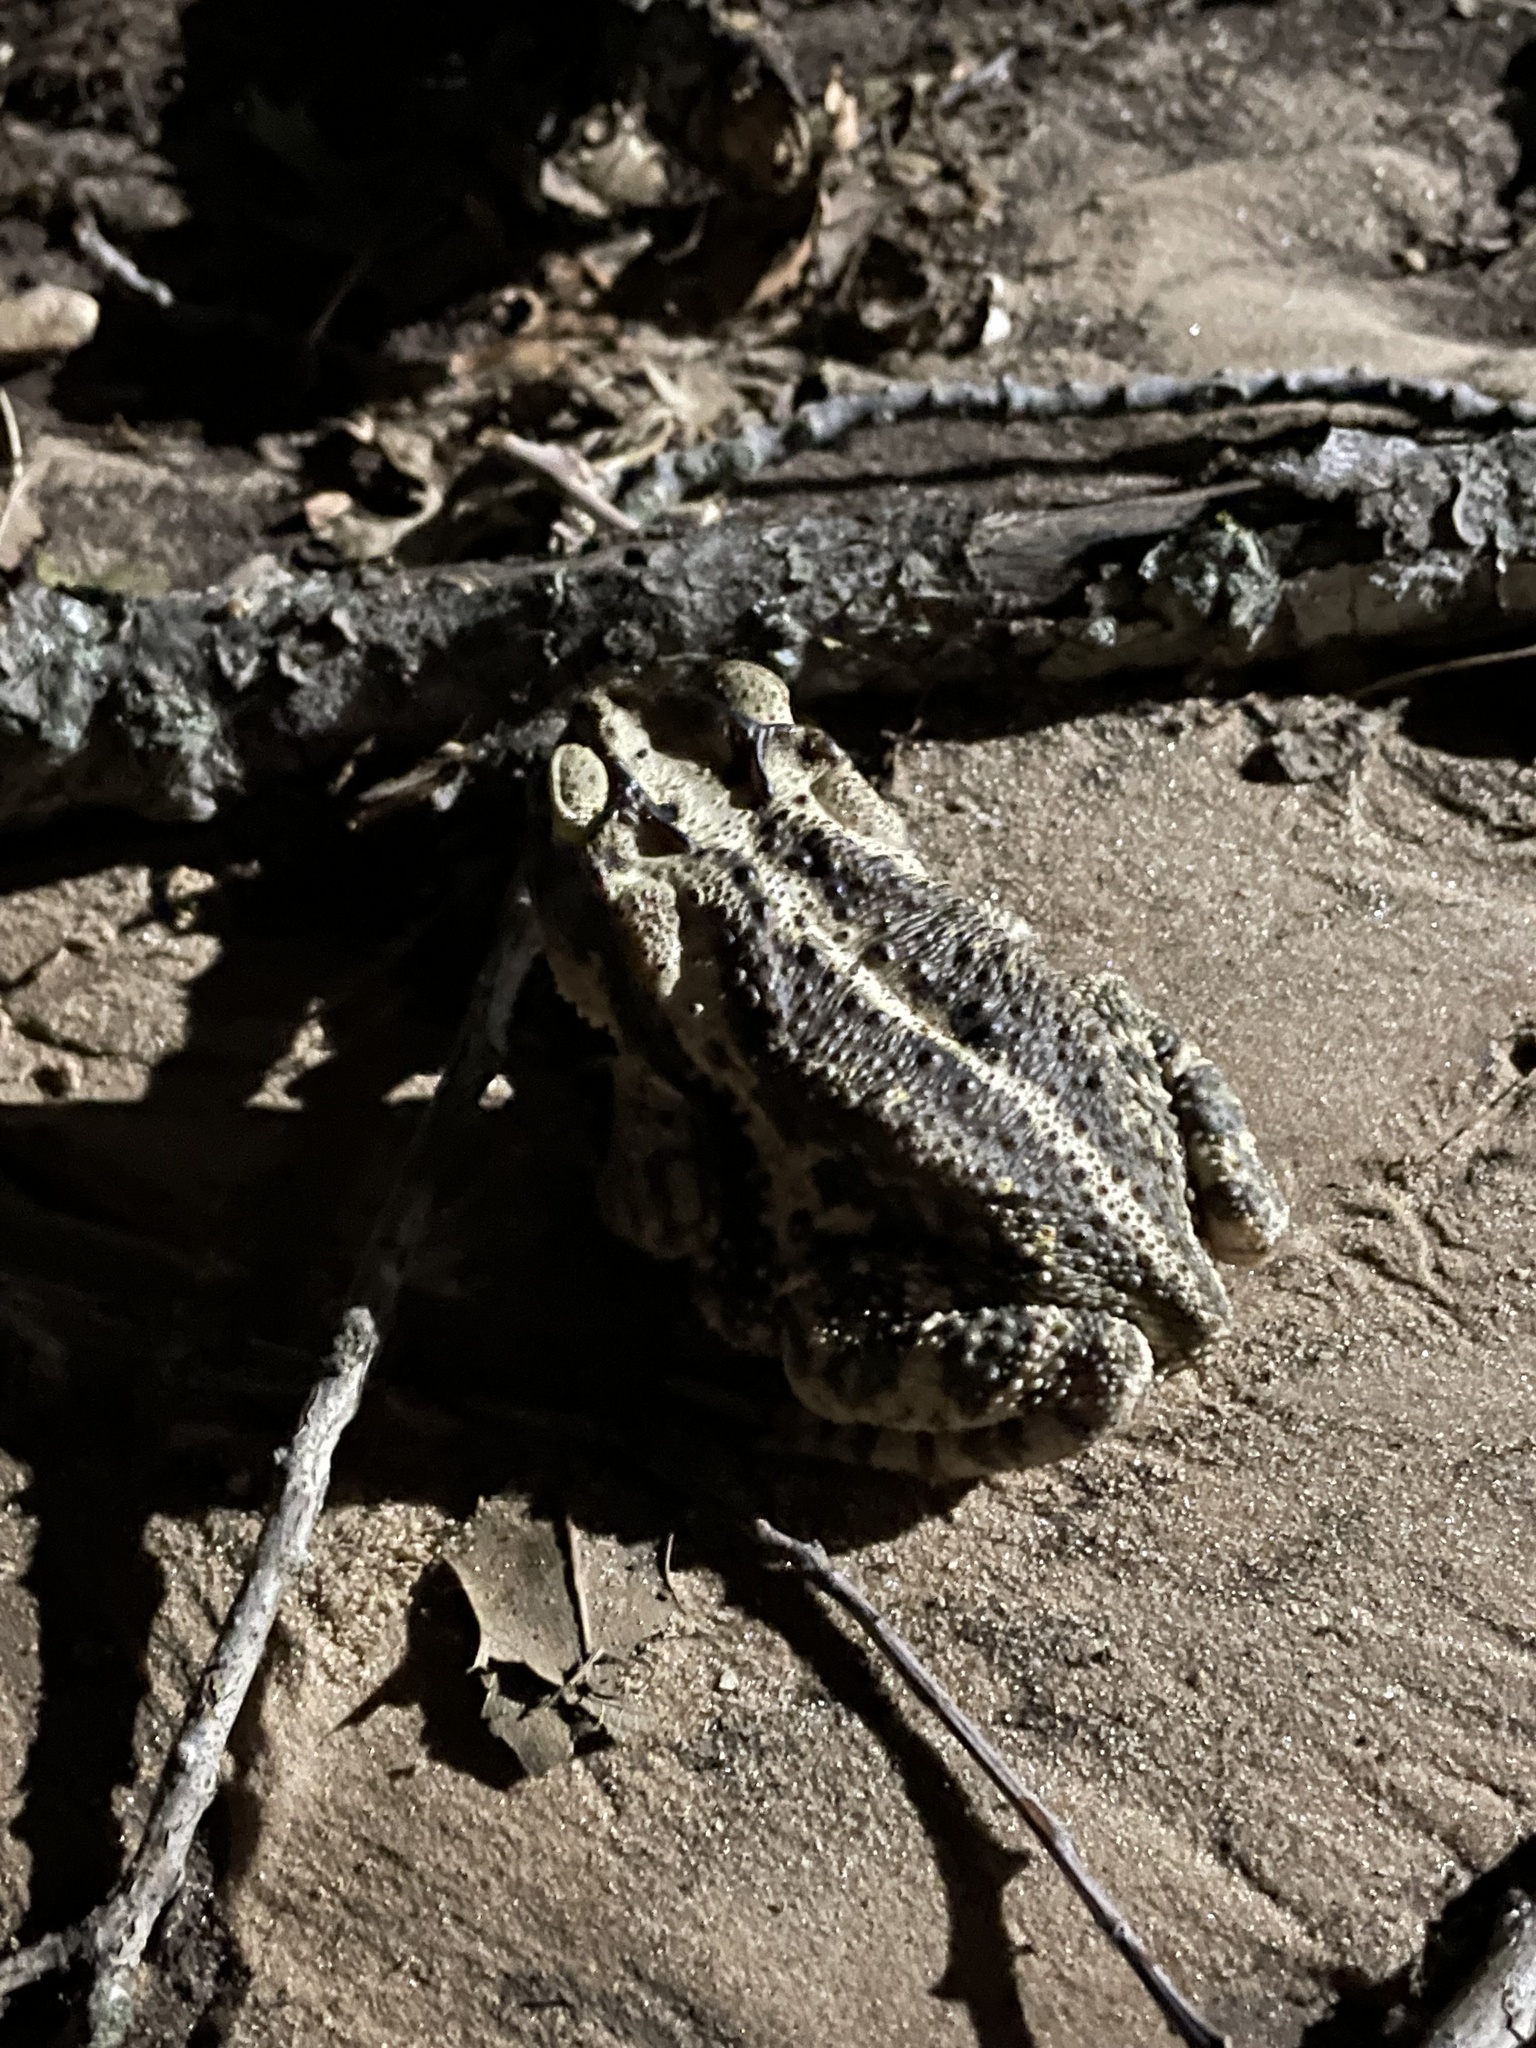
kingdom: Animalia
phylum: Chordata
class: Amphibia
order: Anura
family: Bufonidae
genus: Incilius
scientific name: Incilius nebulifer
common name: Gulf coast toad
